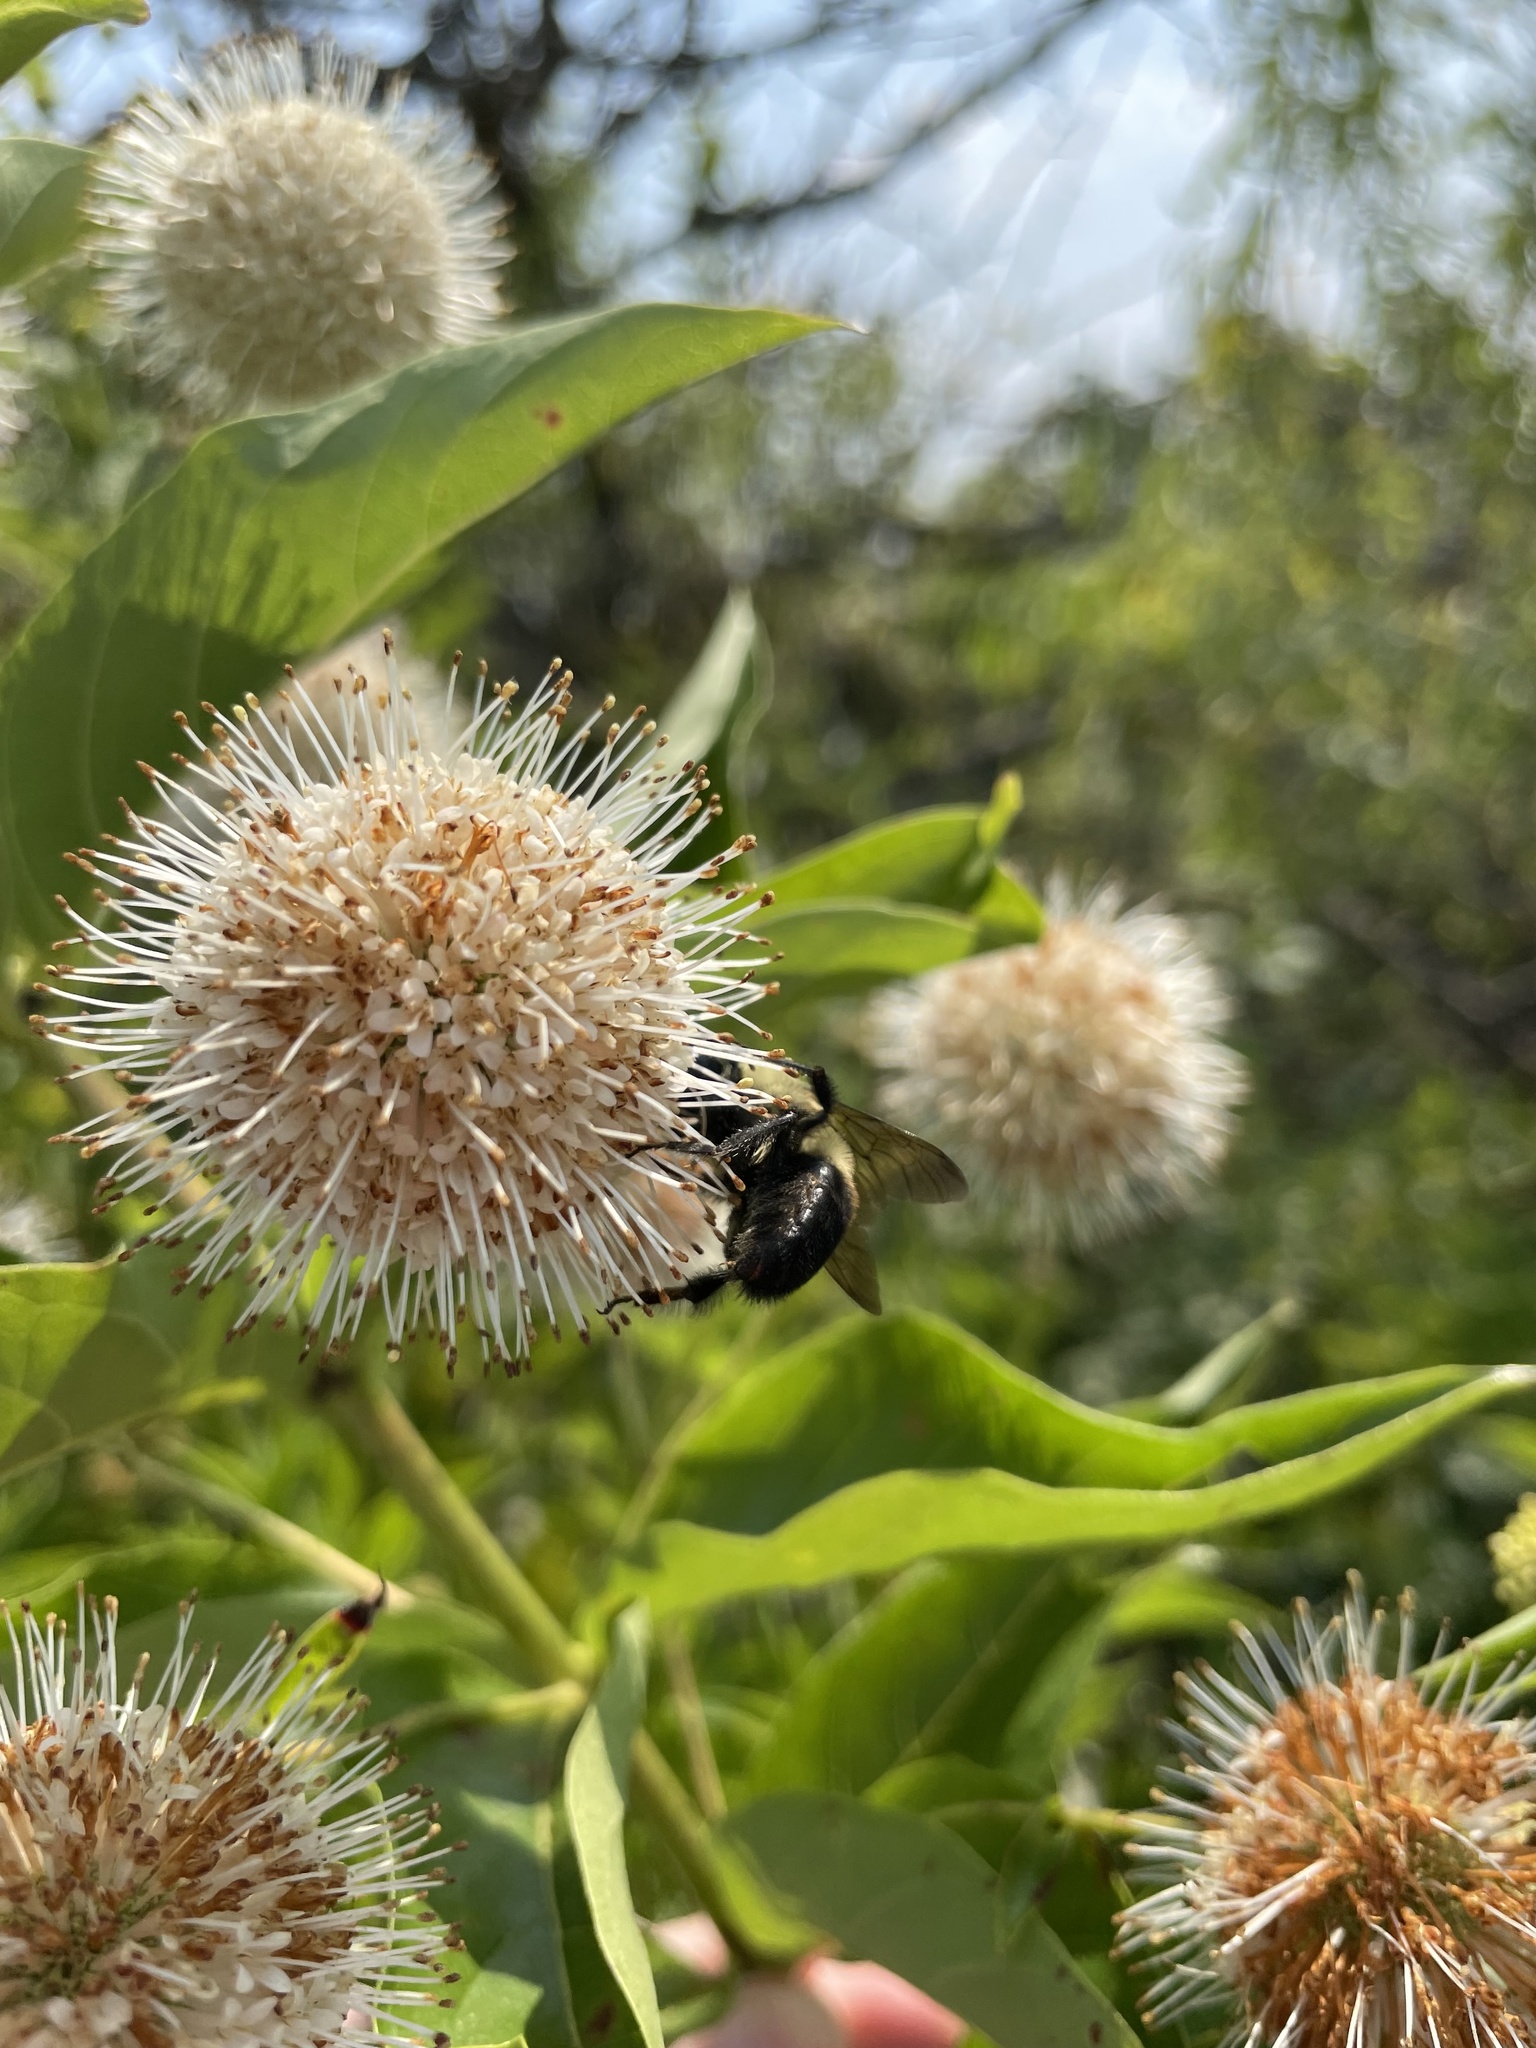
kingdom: Animalia
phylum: Arthropoda
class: Insecta
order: Hymenoptera
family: Apidae
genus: Bombus
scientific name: Bombus griseocollis
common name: Brown-belted bumble bee
